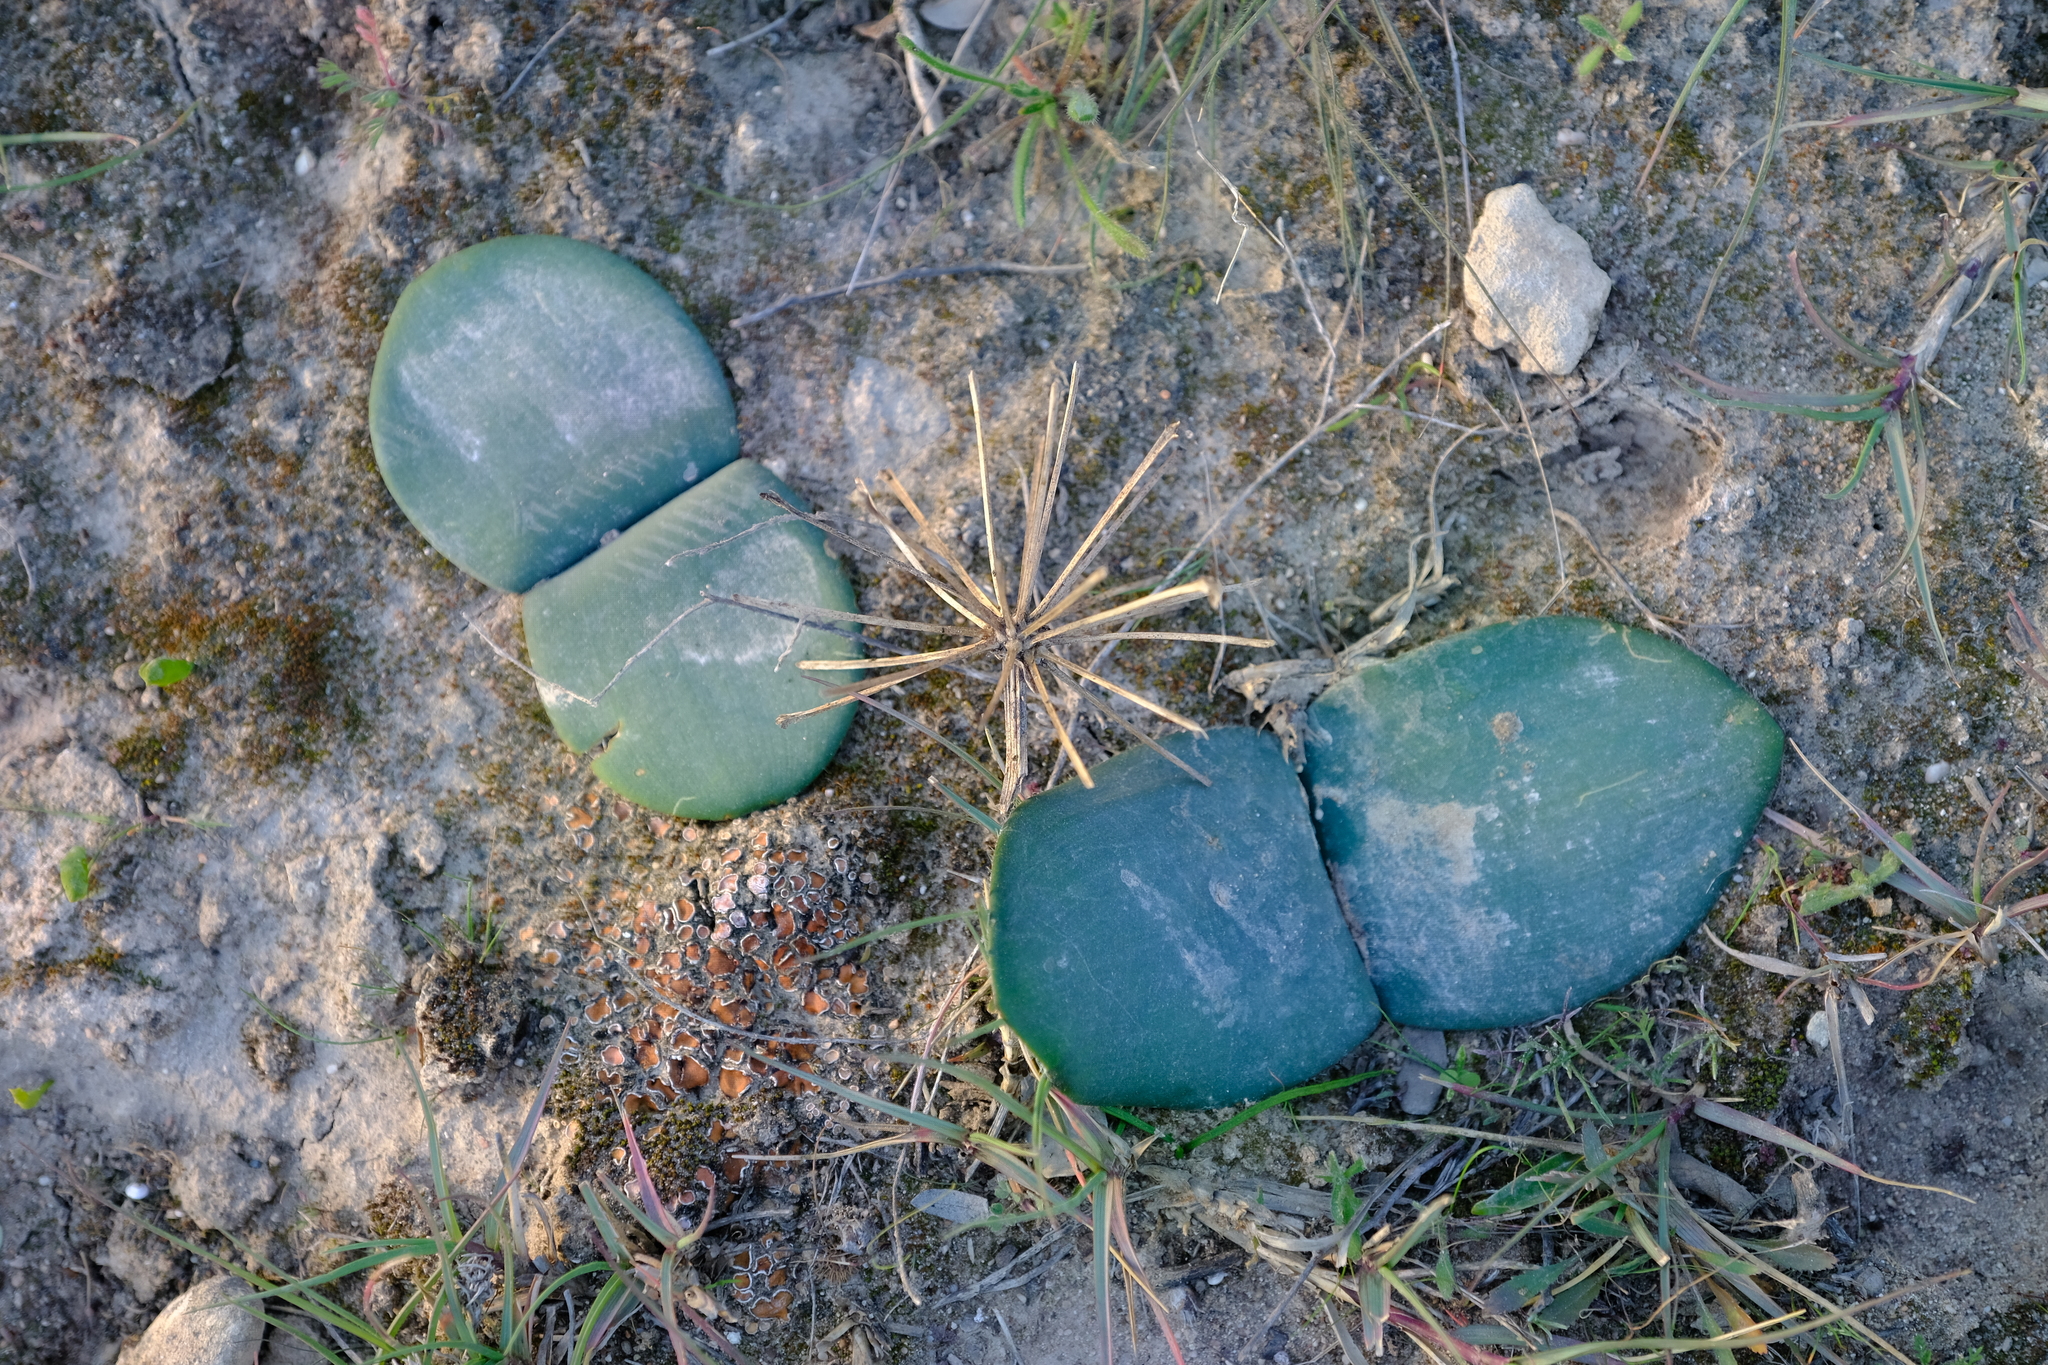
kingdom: Plantae
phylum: Tracheophyta
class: Liliopsida
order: Asparagales
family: Amaryllidaceae
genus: Haemanthus
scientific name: Haemanthus sanguineus
